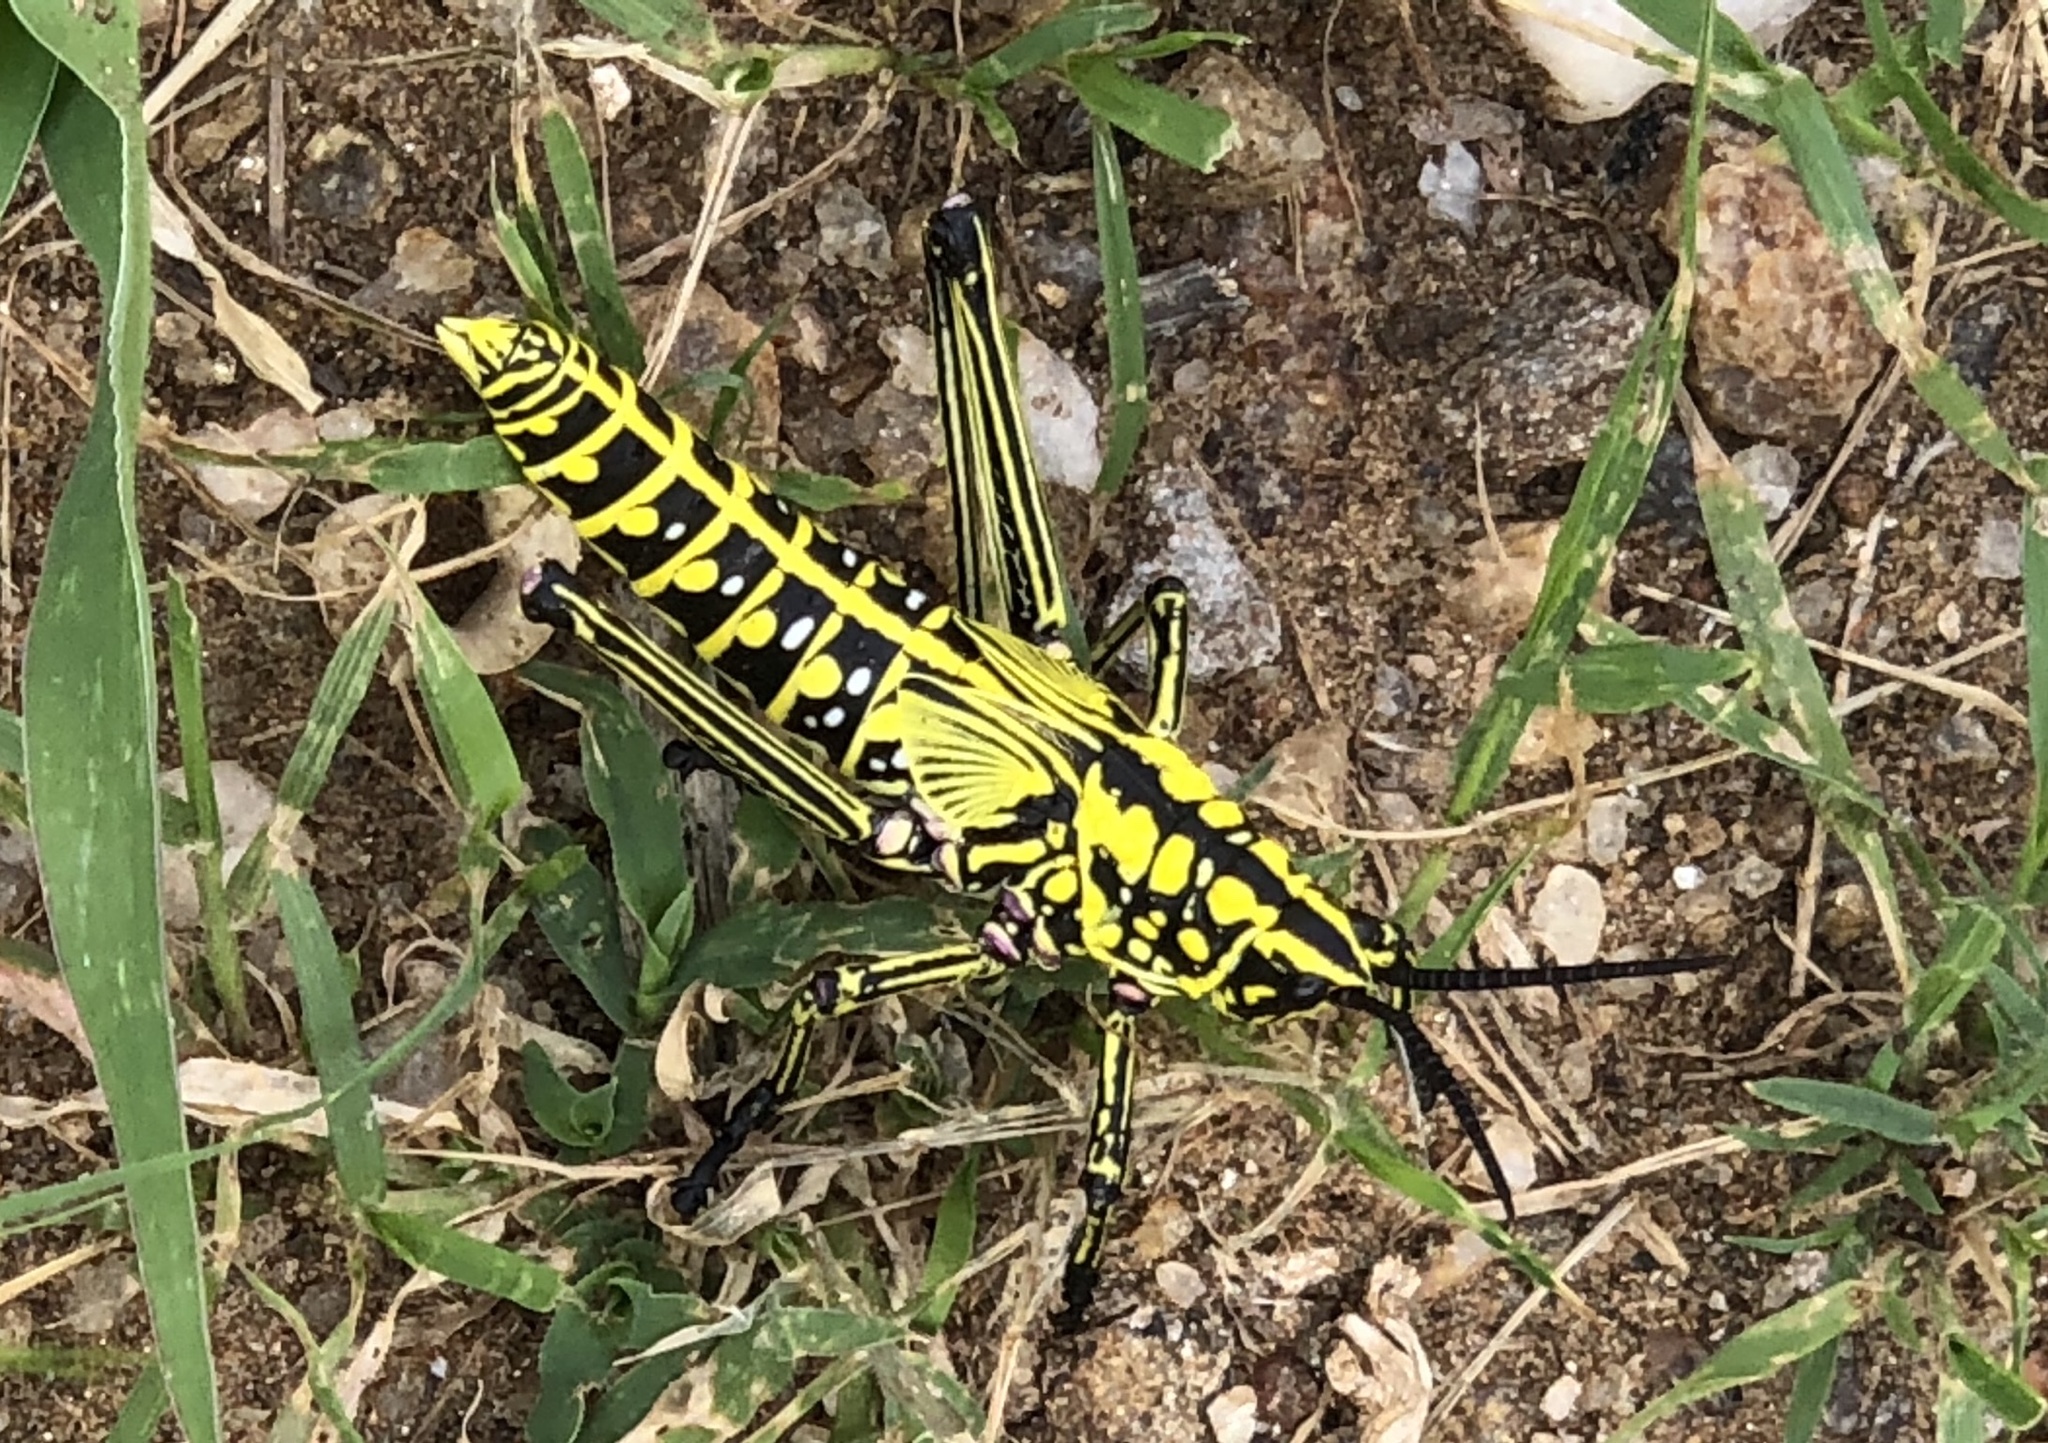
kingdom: Animalia
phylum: Arthropoda
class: Insecta
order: Orthoptera
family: Pyrgomorphidae
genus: Phymateus
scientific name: Phymateus viridipes
